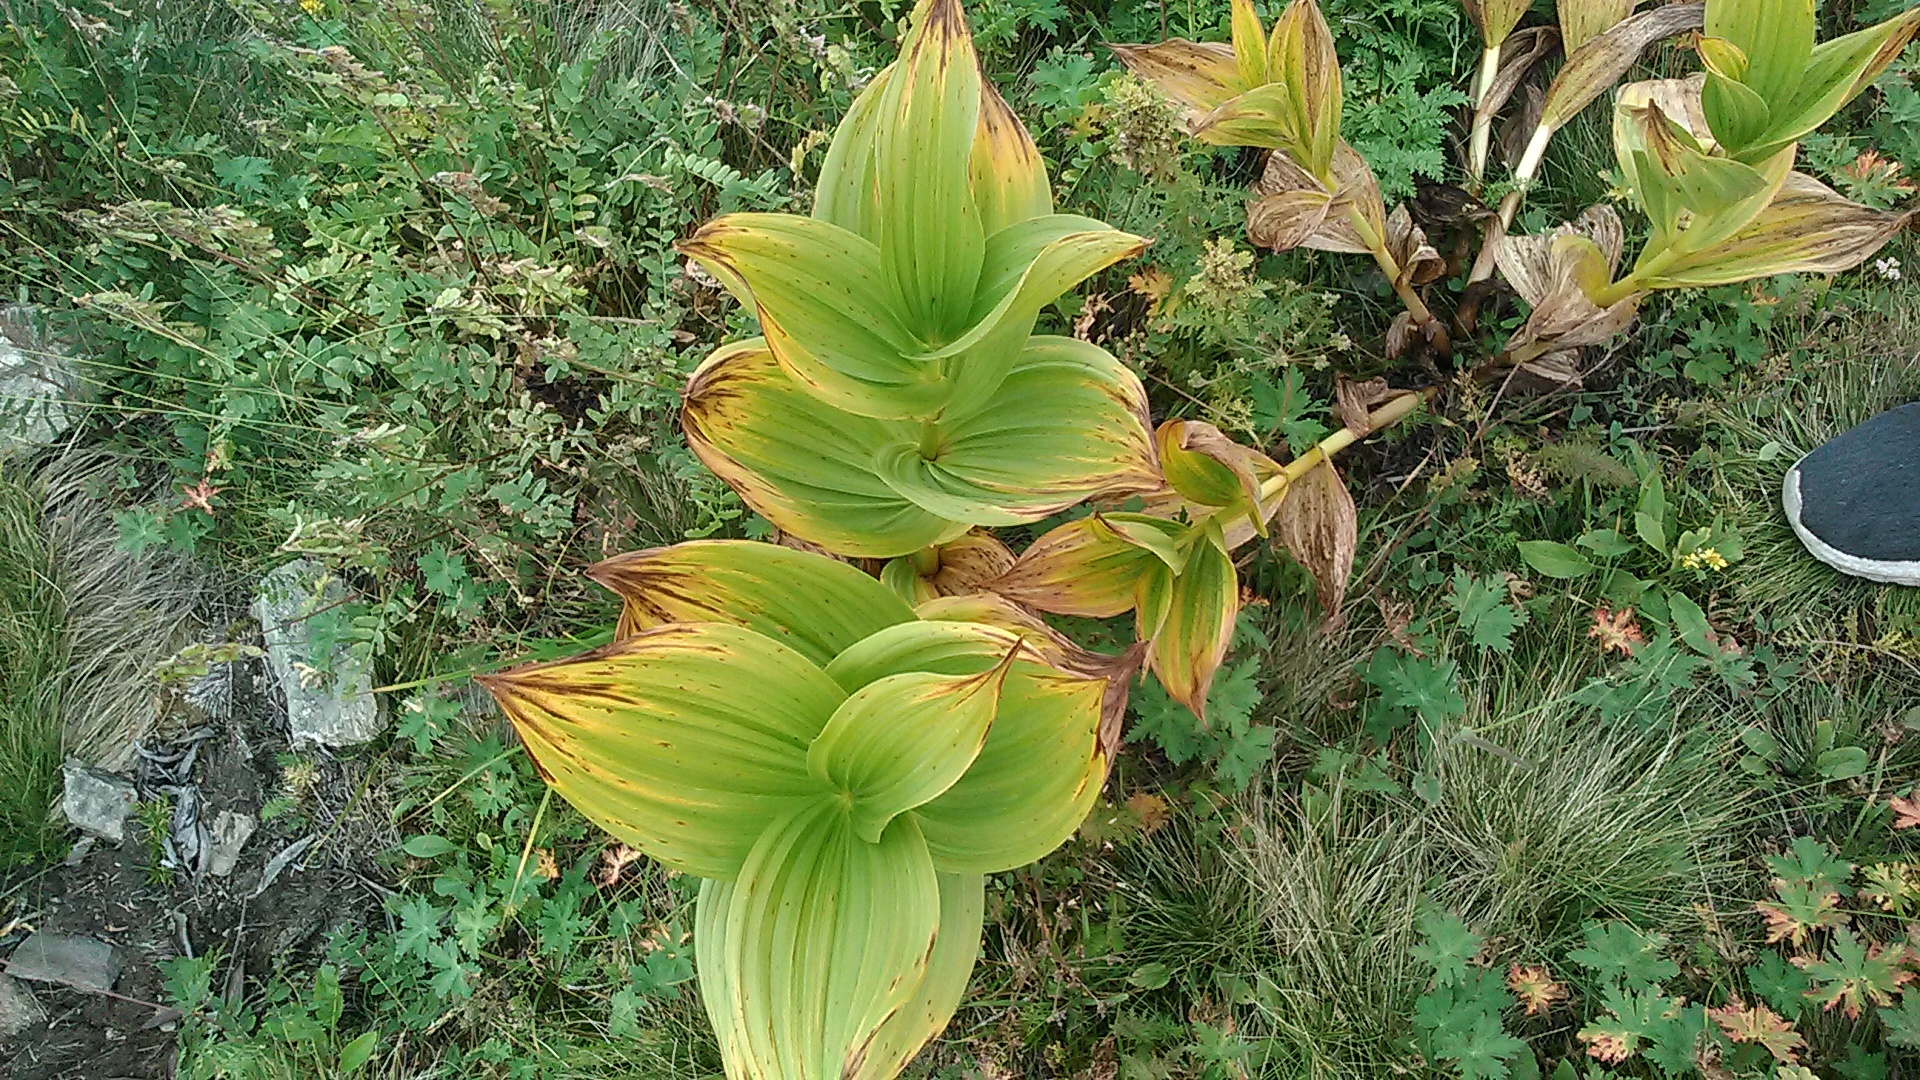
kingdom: Plantae
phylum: Tracheophyta
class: Liliopsida
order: Liliales
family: Melanthiaceae
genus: Veratrum
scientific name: Veratrum lobelianum
